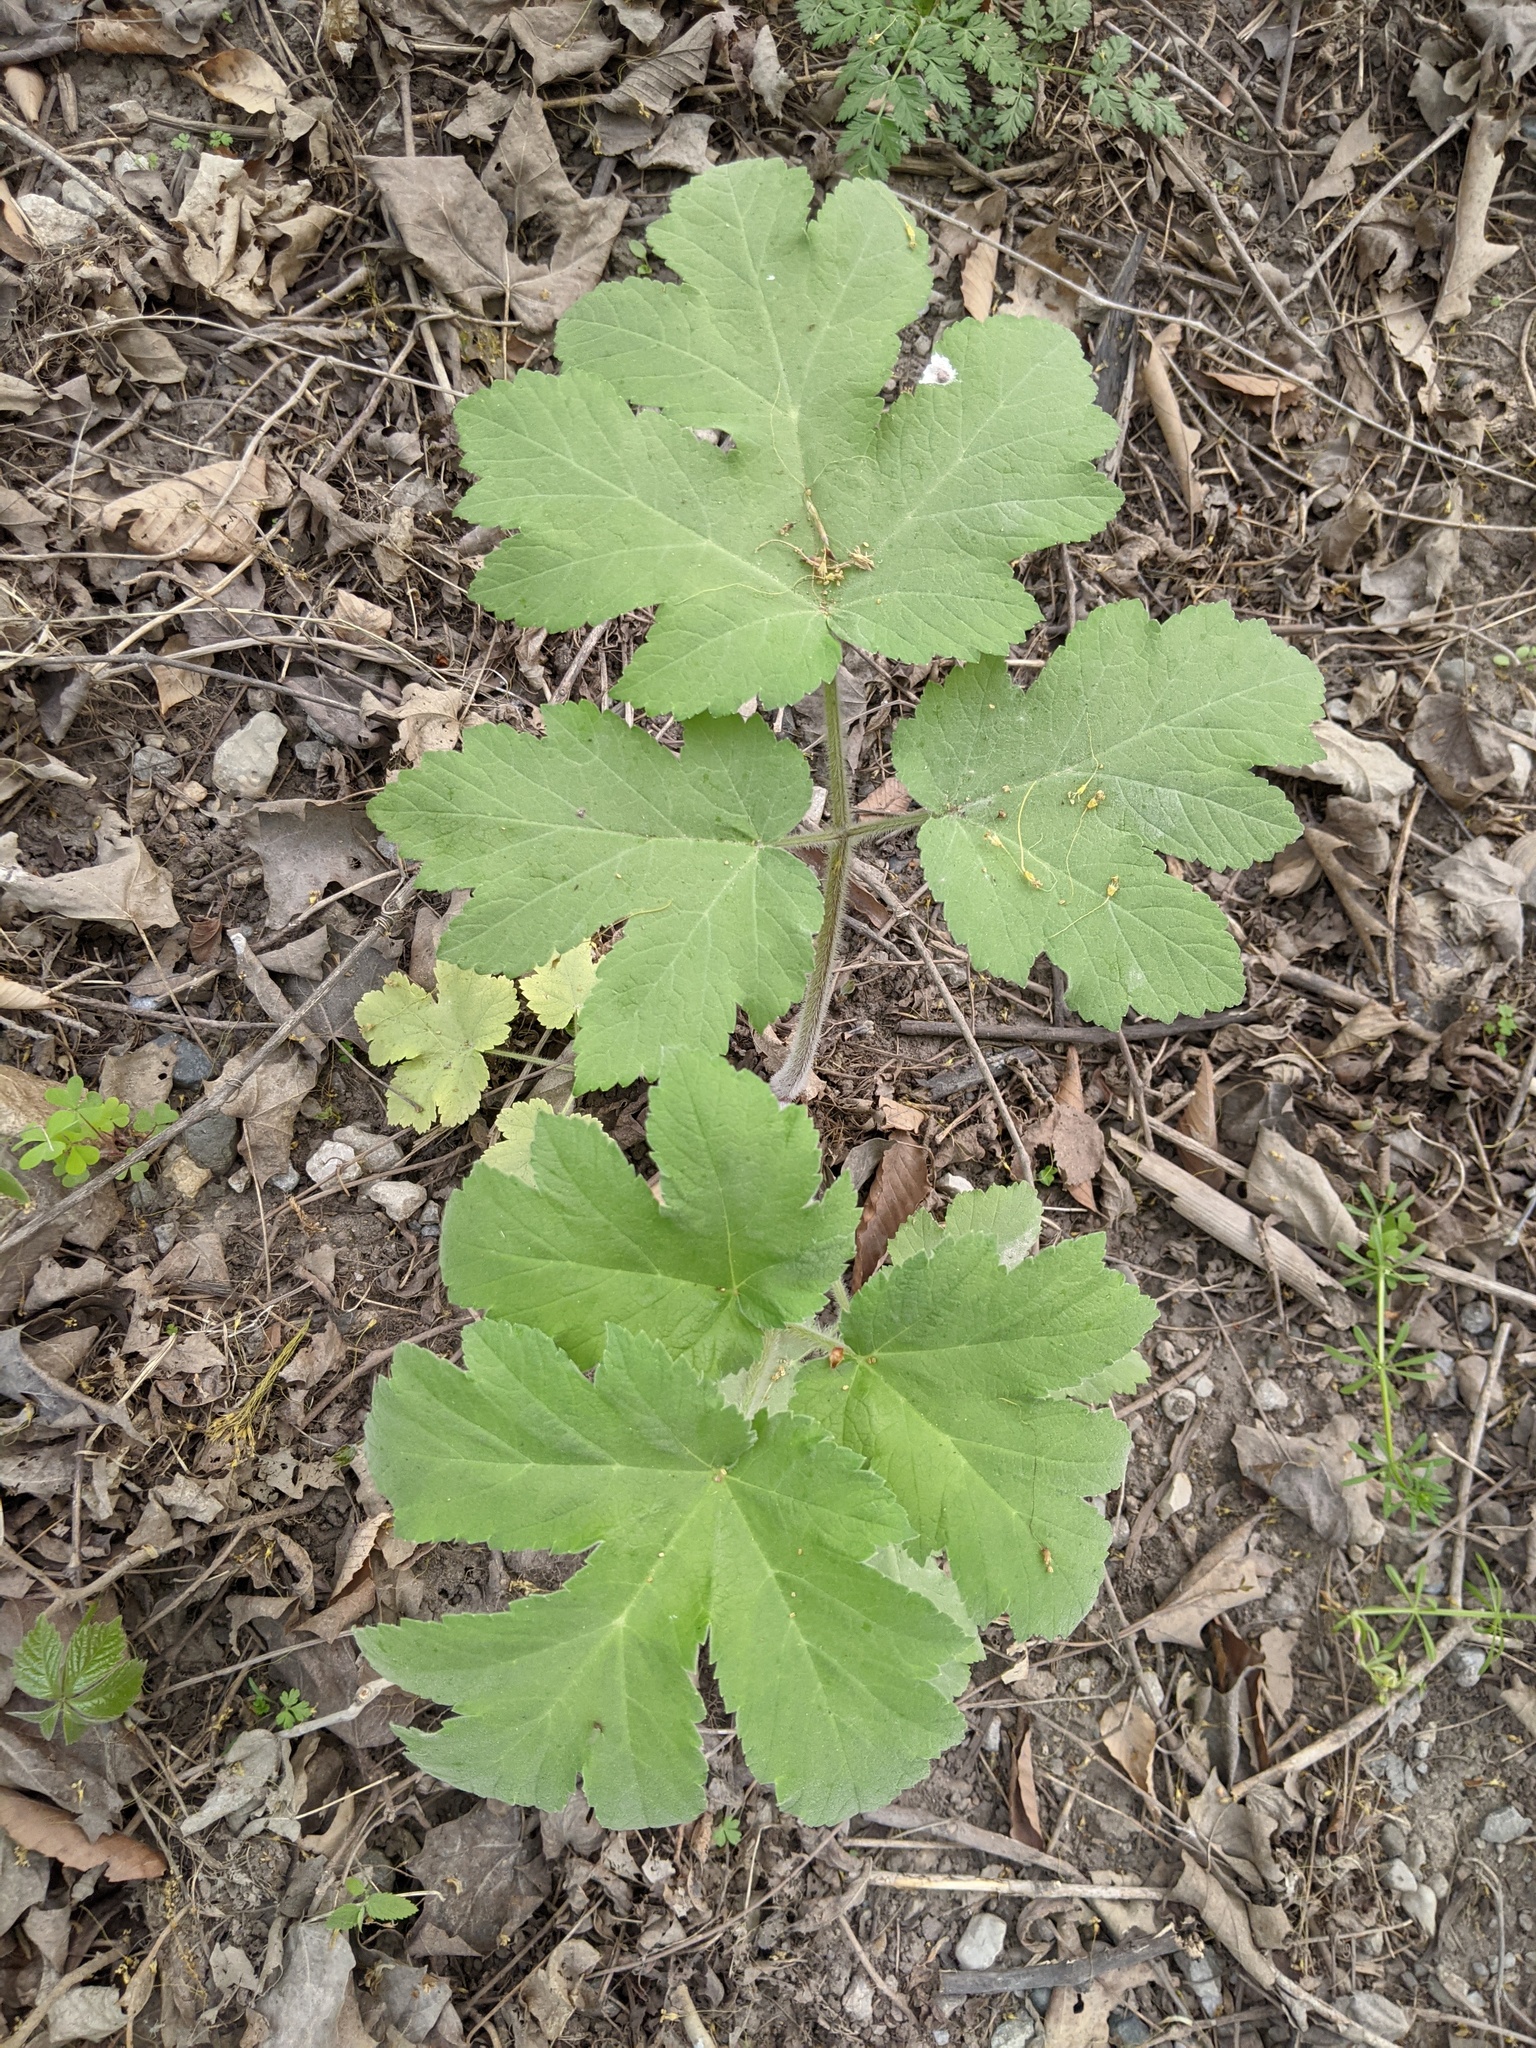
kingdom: Plantae
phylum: Tracheophyta
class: Magnoliopsida
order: Apiales
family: Apiaceae
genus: Heracleum
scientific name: Heracleum maximum
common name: American cow parsnip
